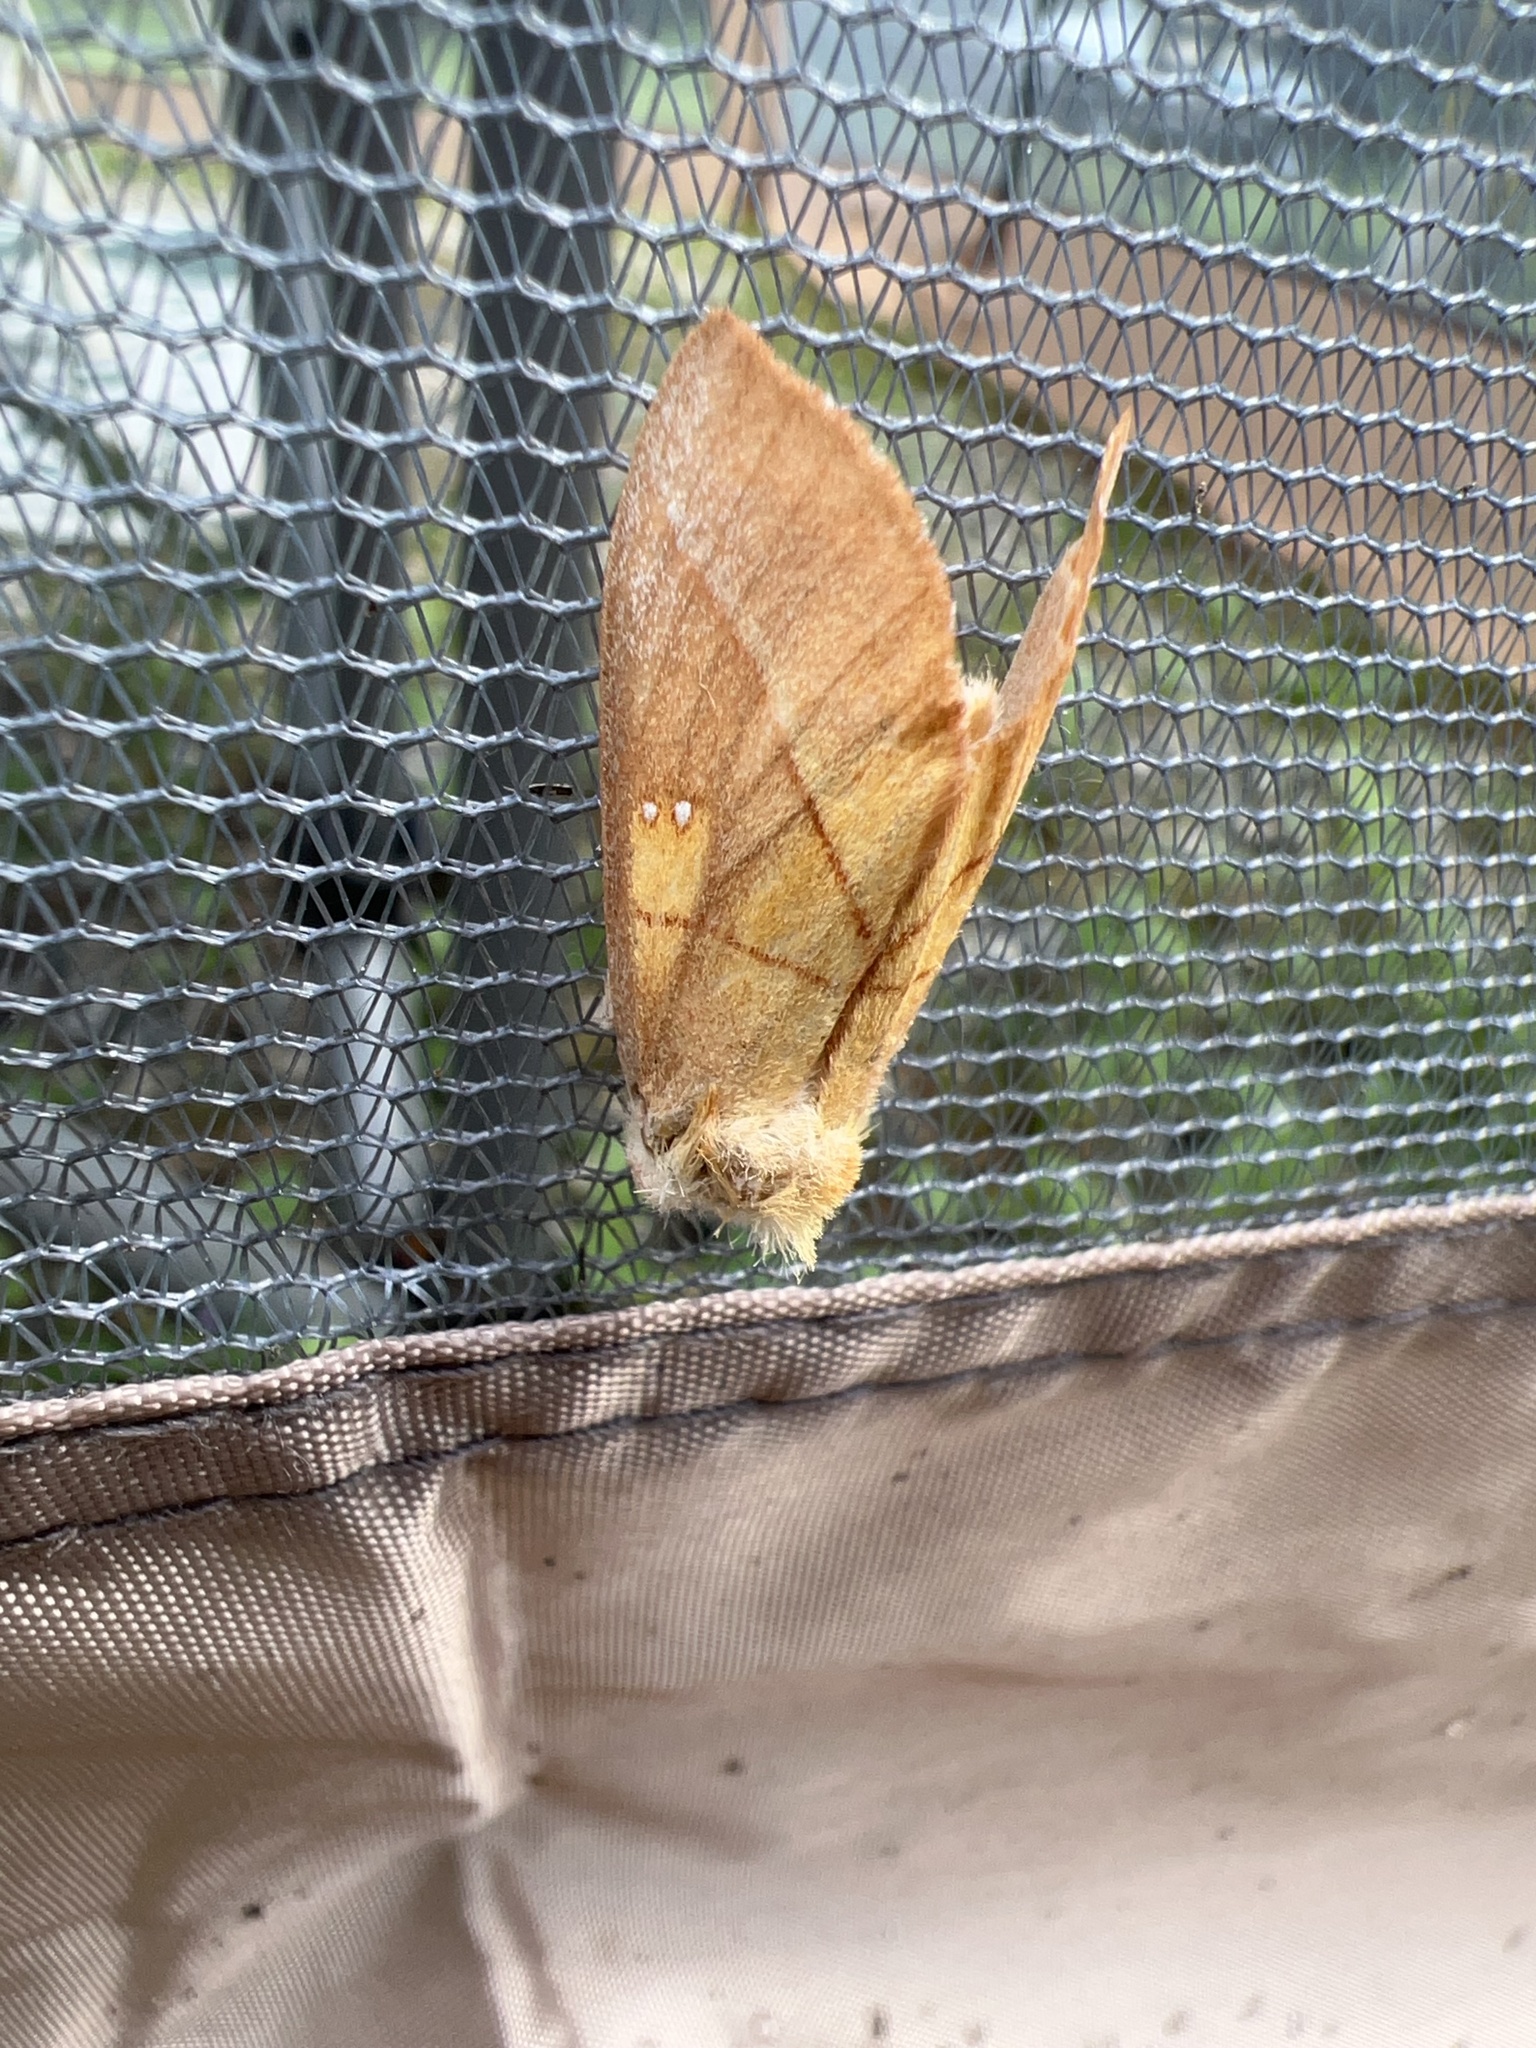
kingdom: Animalia
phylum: Arthropoda
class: Insecta
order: Lepidoptera
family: Notodontidae
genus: Nadata
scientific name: Nadata gibbosa
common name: White-dotted prominent
